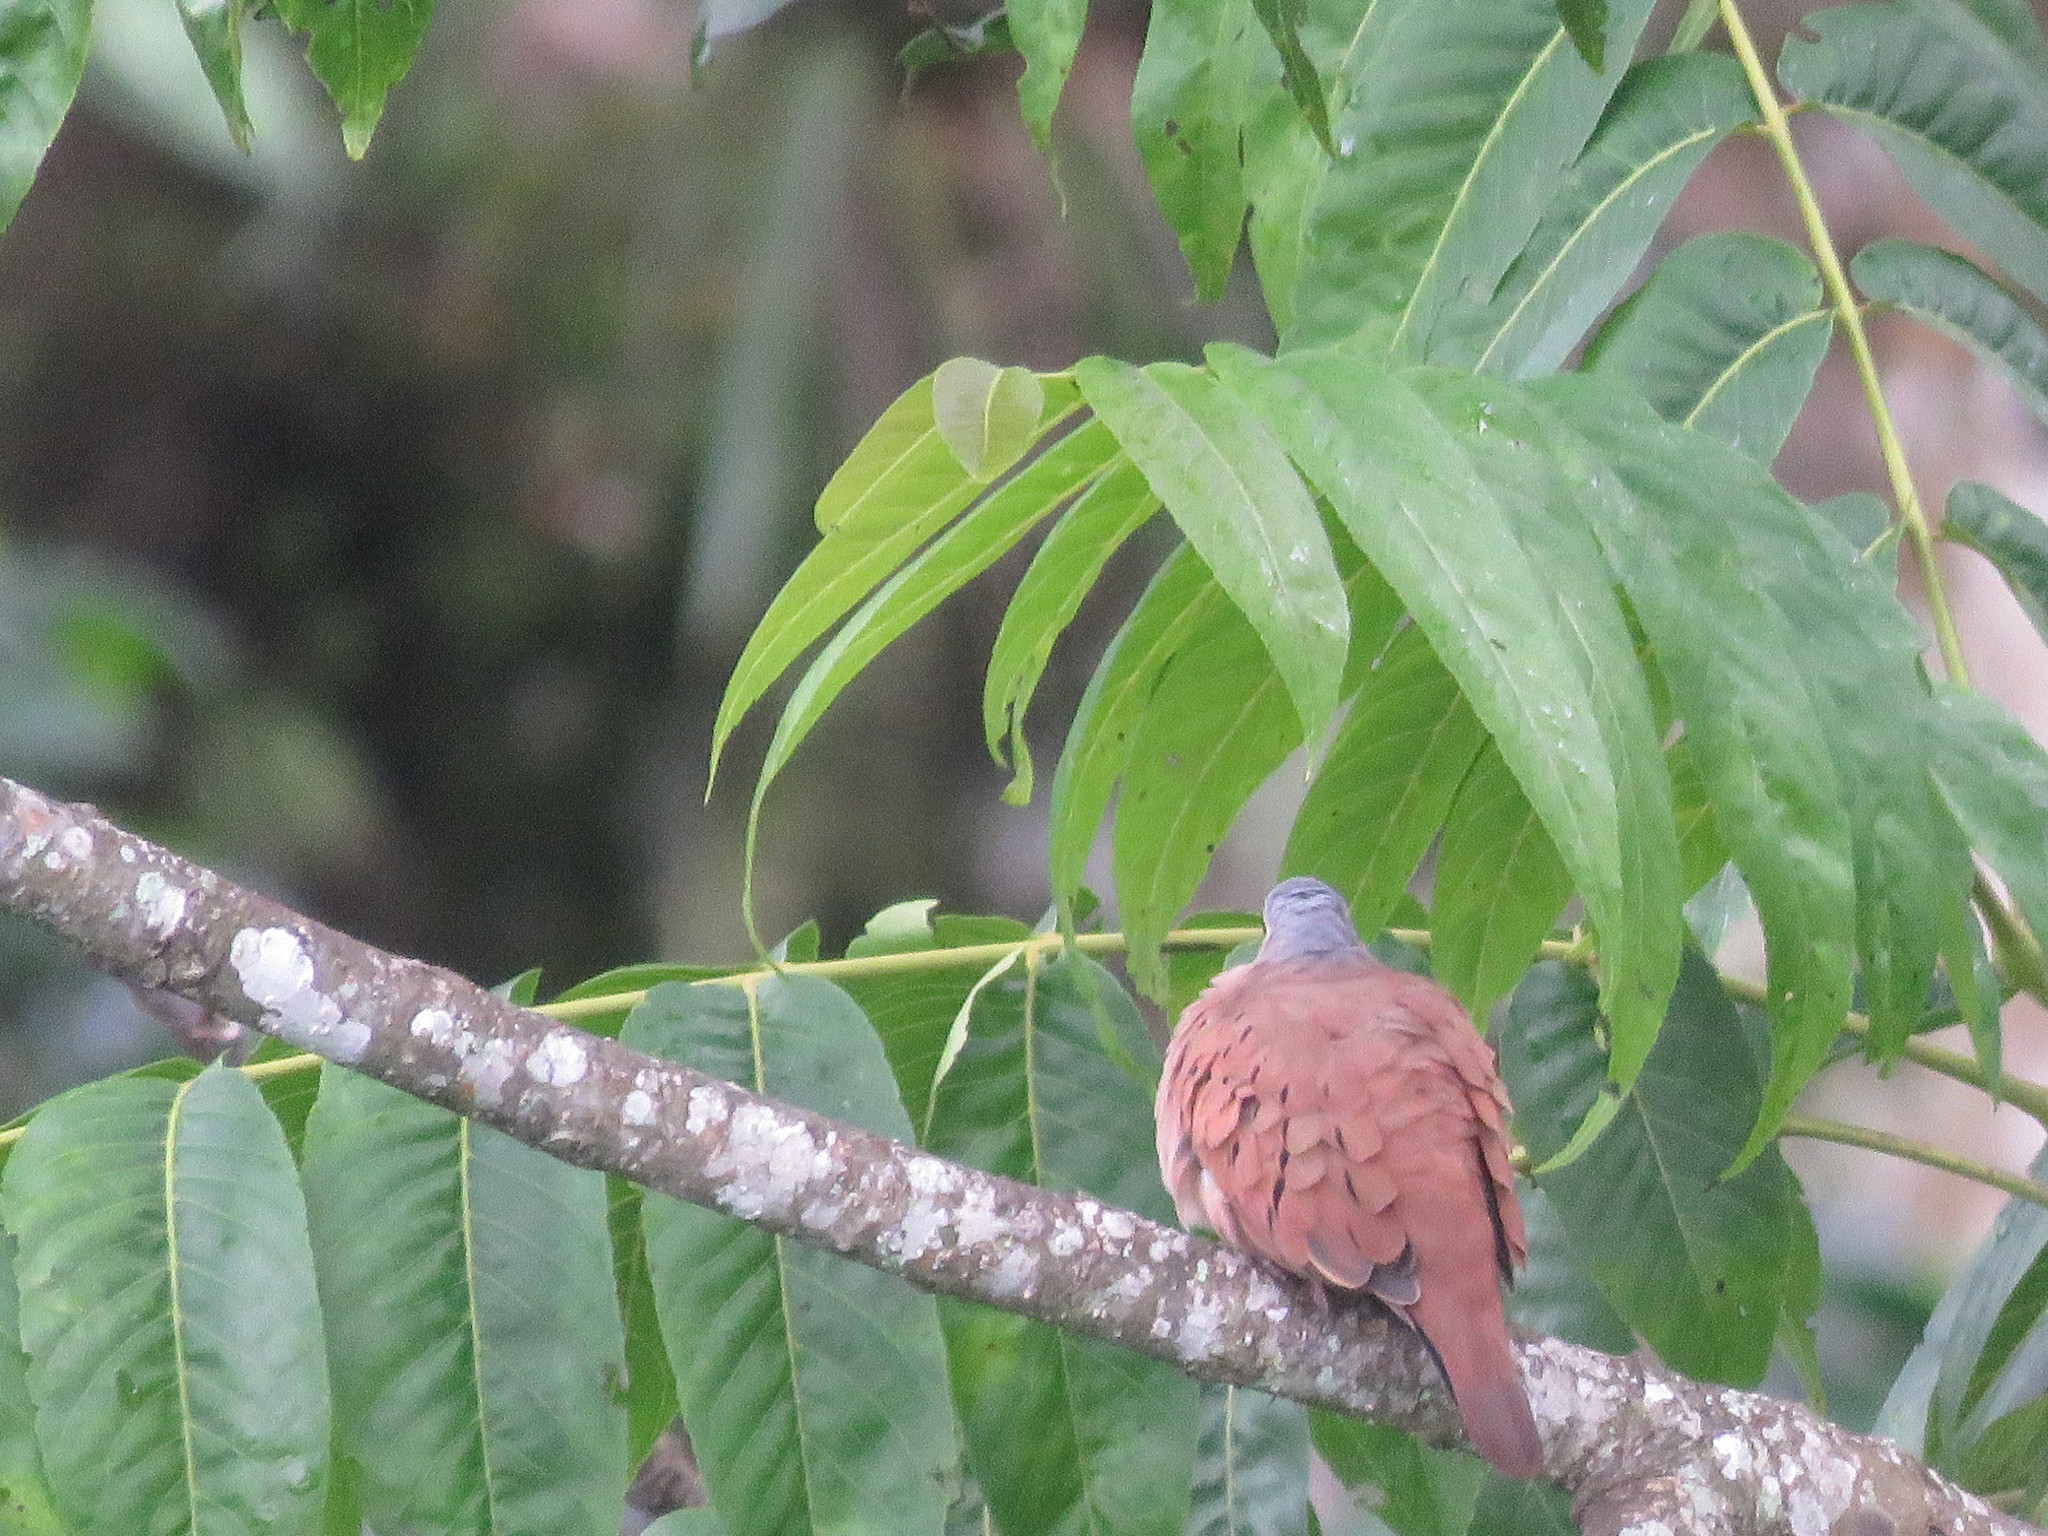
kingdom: Animalia
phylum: Chordata
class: Aves
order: Columbiformes
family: Columbidae
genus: Columbina
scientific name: Columbina talpacoti
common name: Ruddy ground dove
